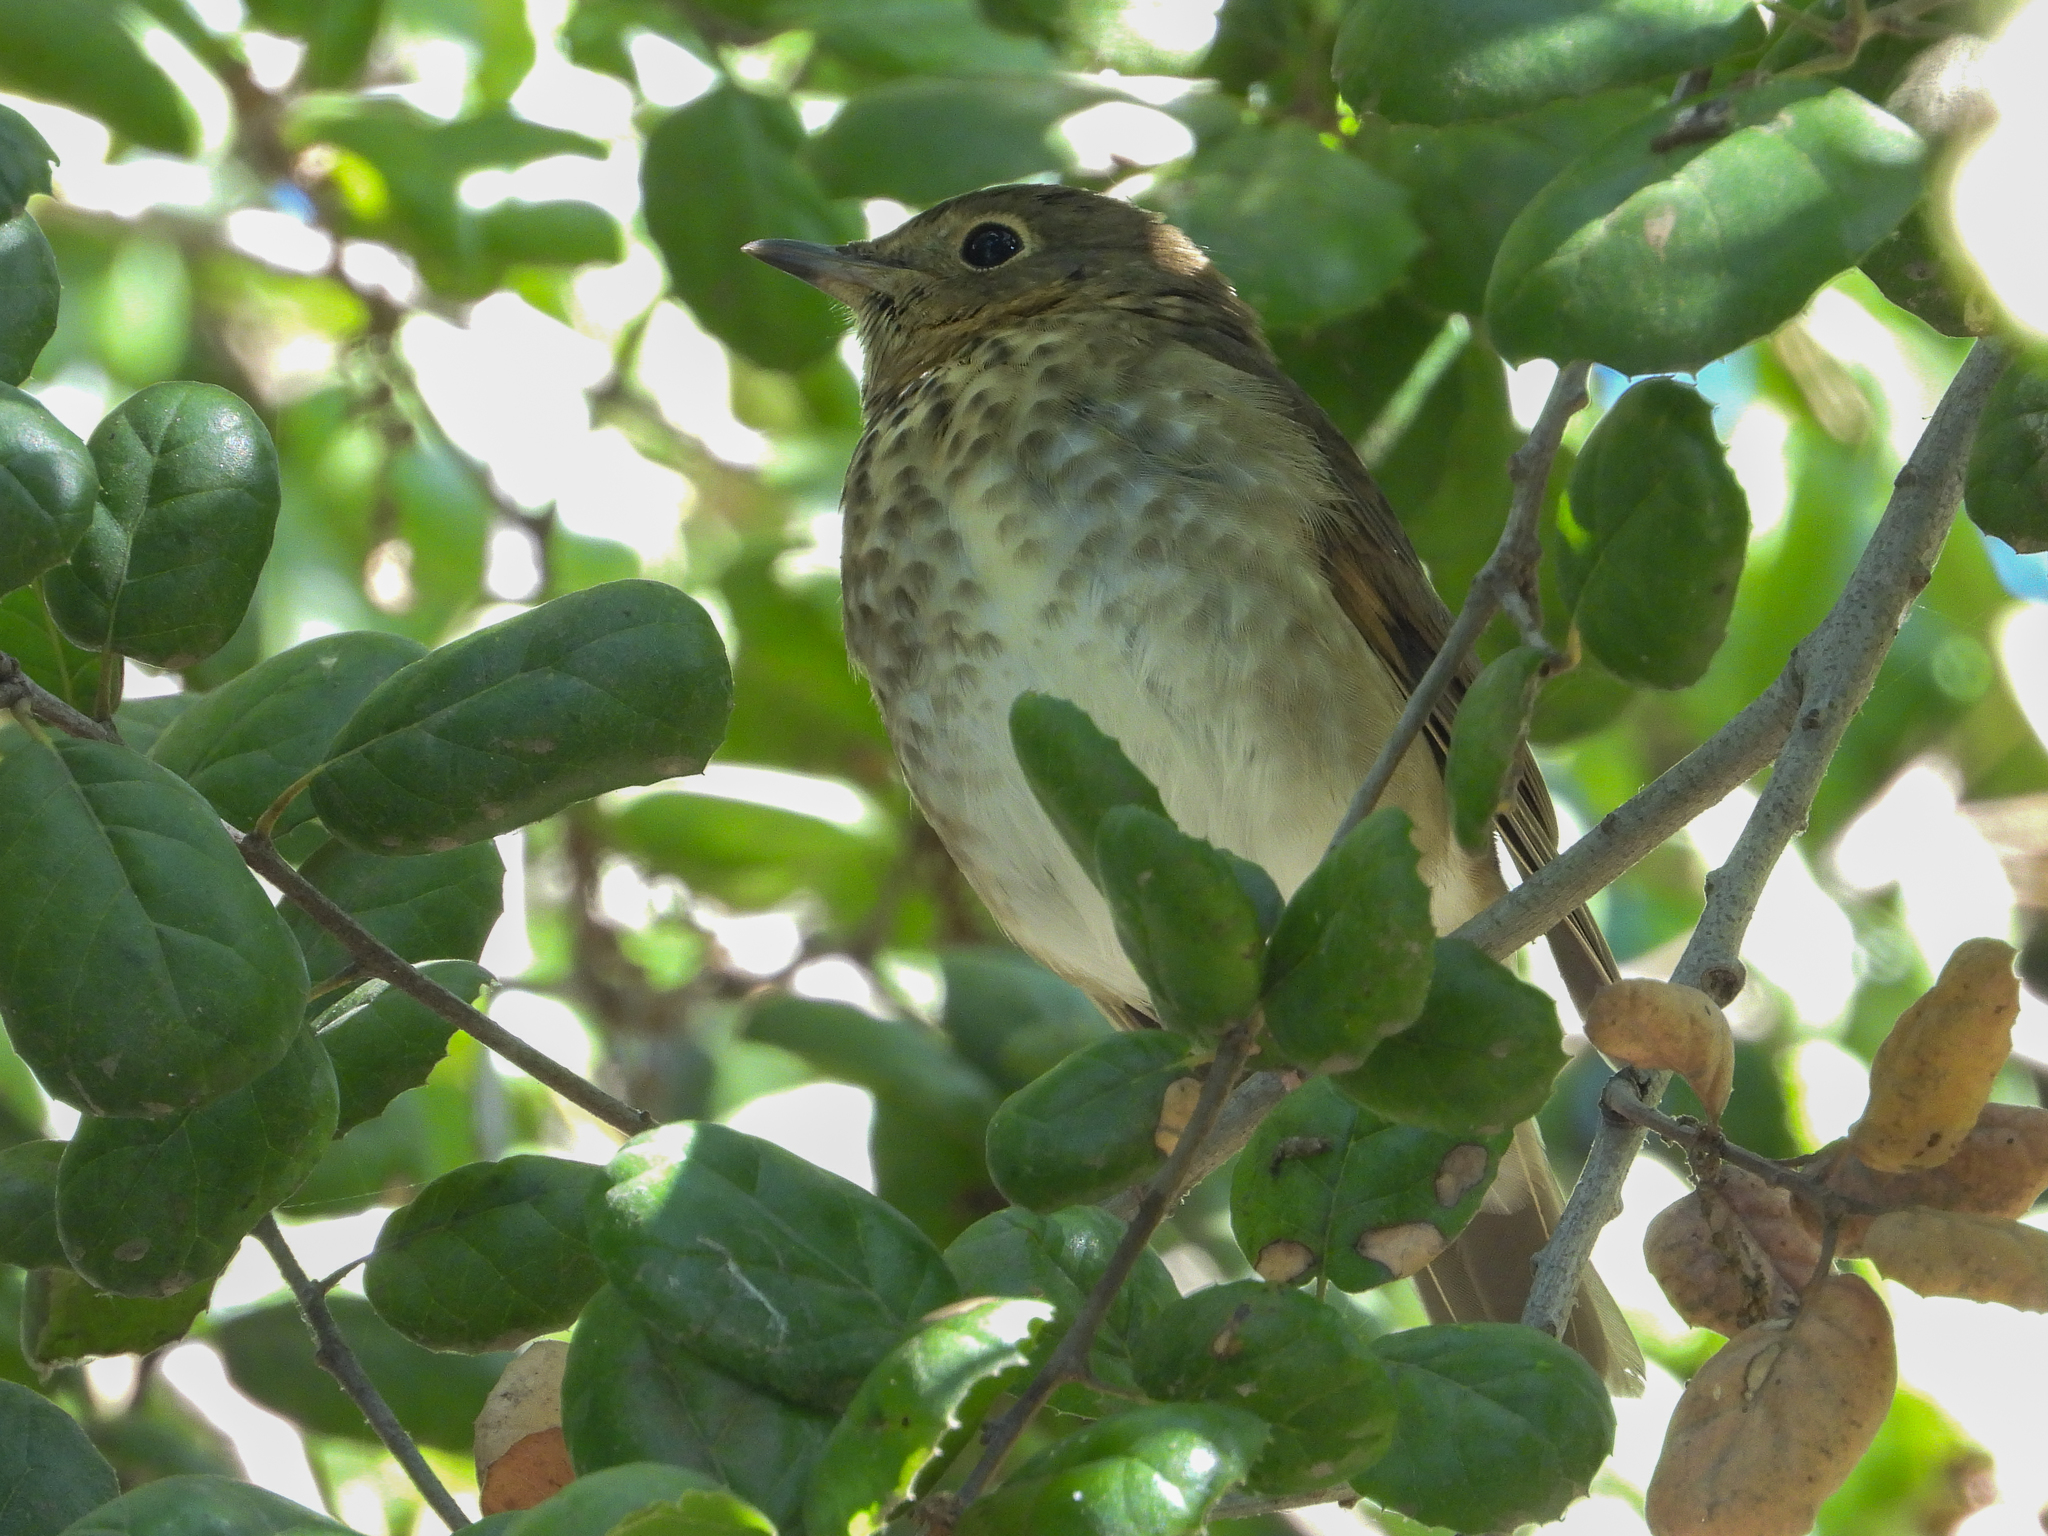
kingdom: Animalia
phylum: Chordata
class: Aves
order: Passeriformes
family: Turdidae
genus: Catharus
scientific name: Catharus ustulatus
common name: Swainson's thrush
